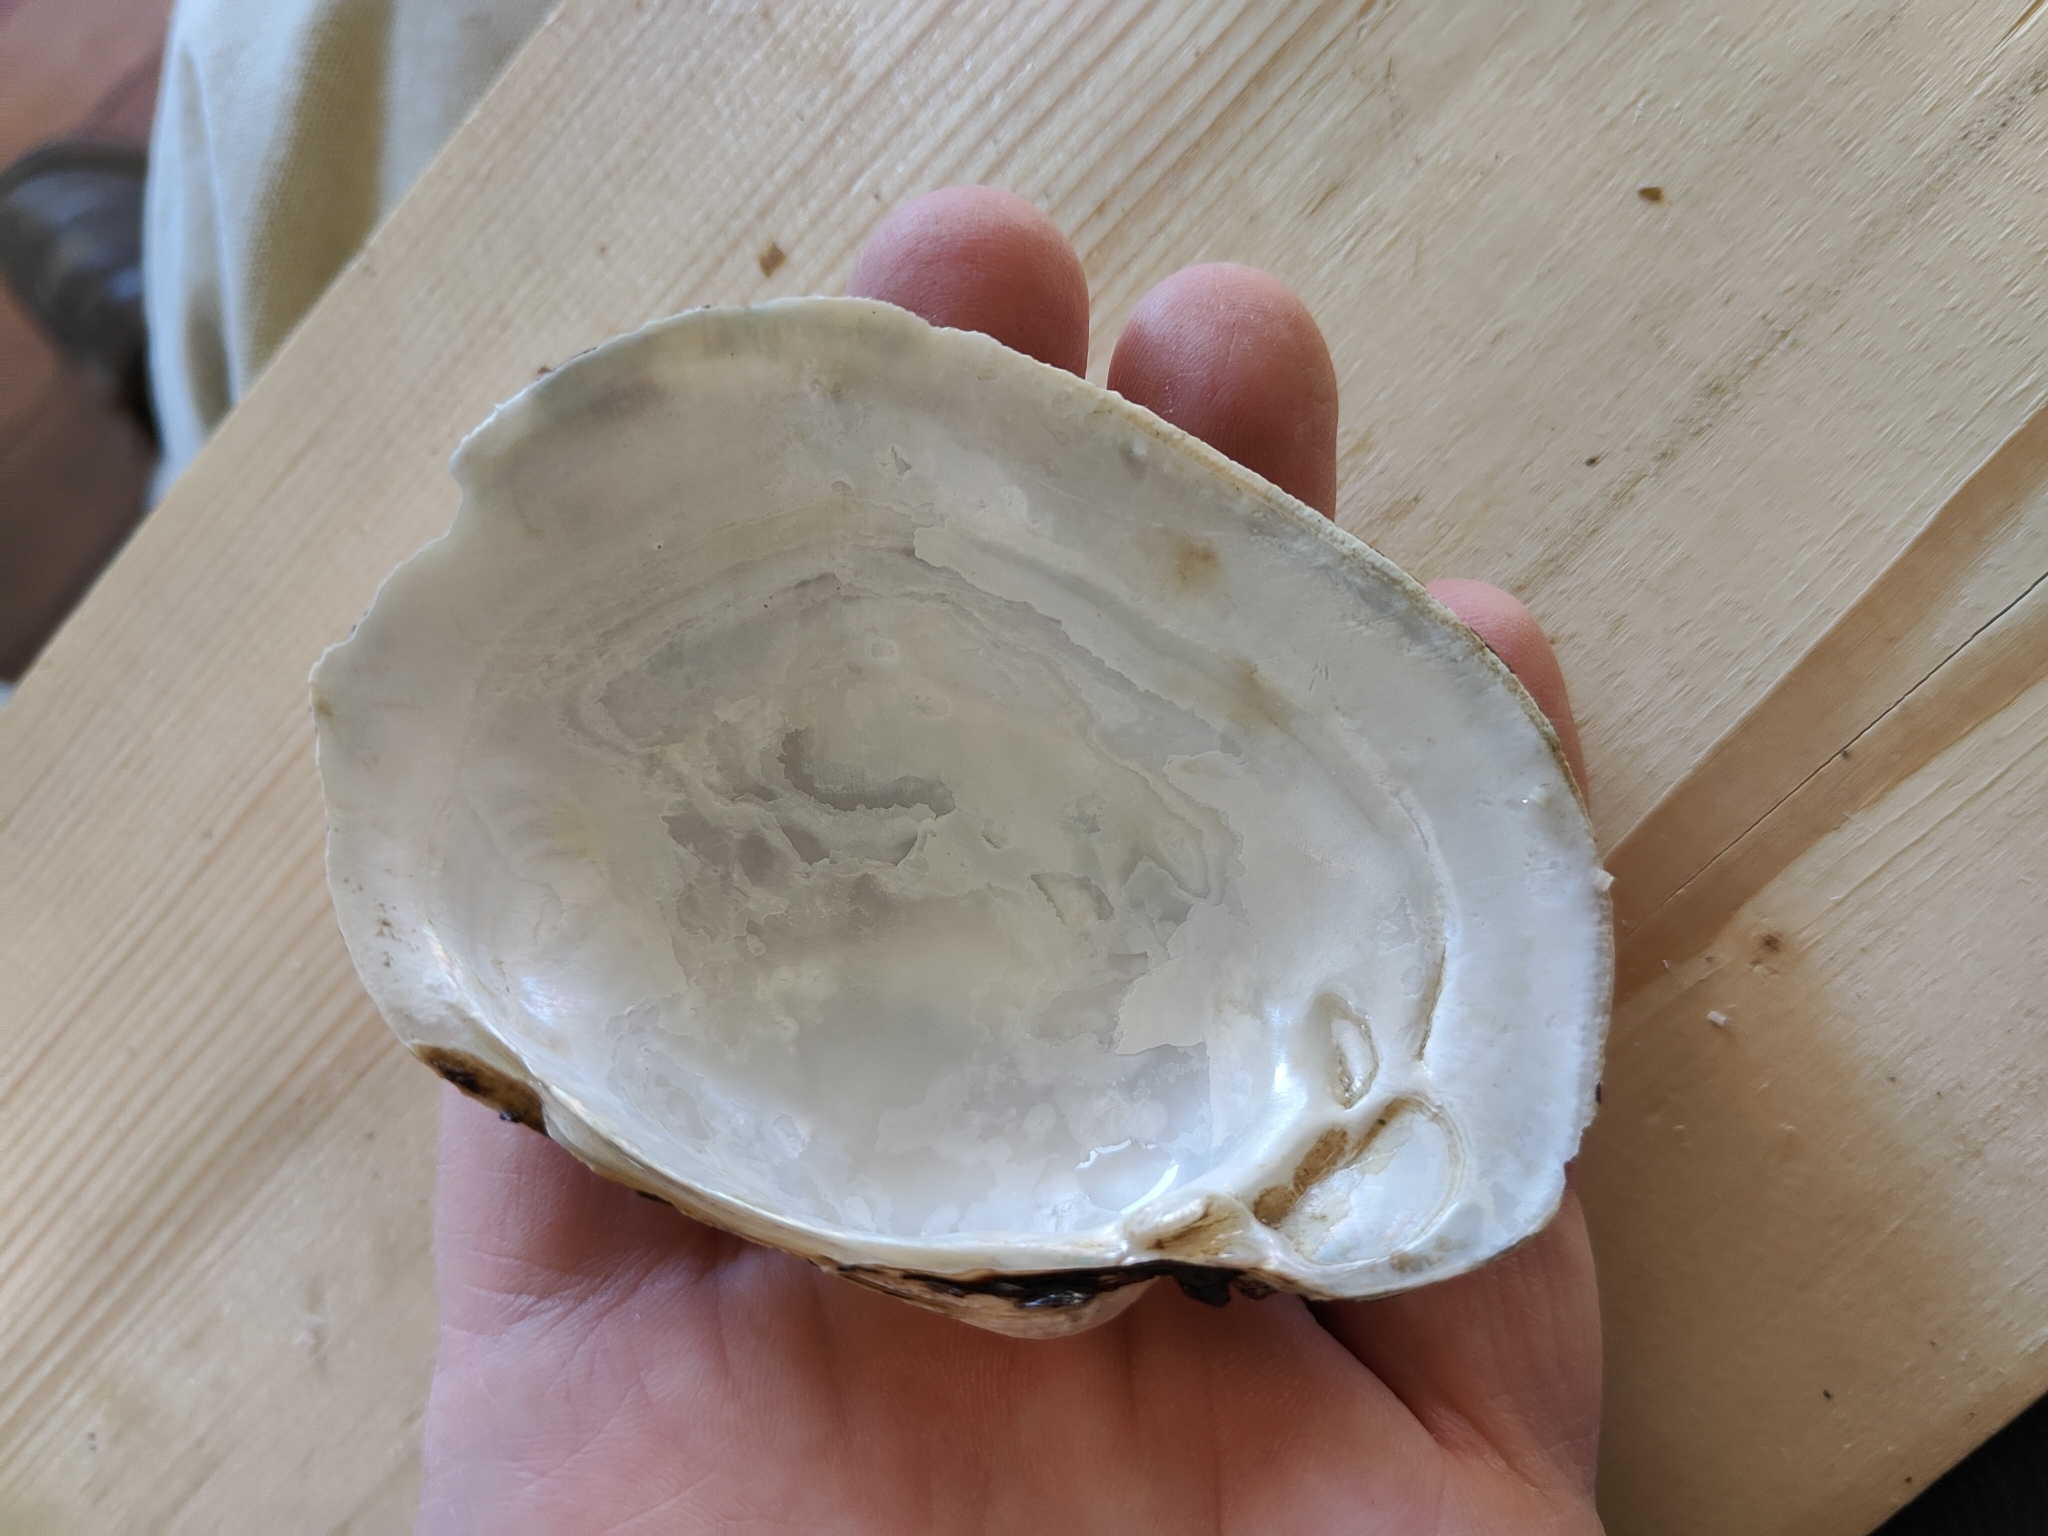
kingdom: Animalia
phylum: Mollusca
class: Bivalvia
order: Unionida
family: Unionidae
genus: Lampsilis
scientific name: Lampsilis cardium
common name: Plain pocketbook
